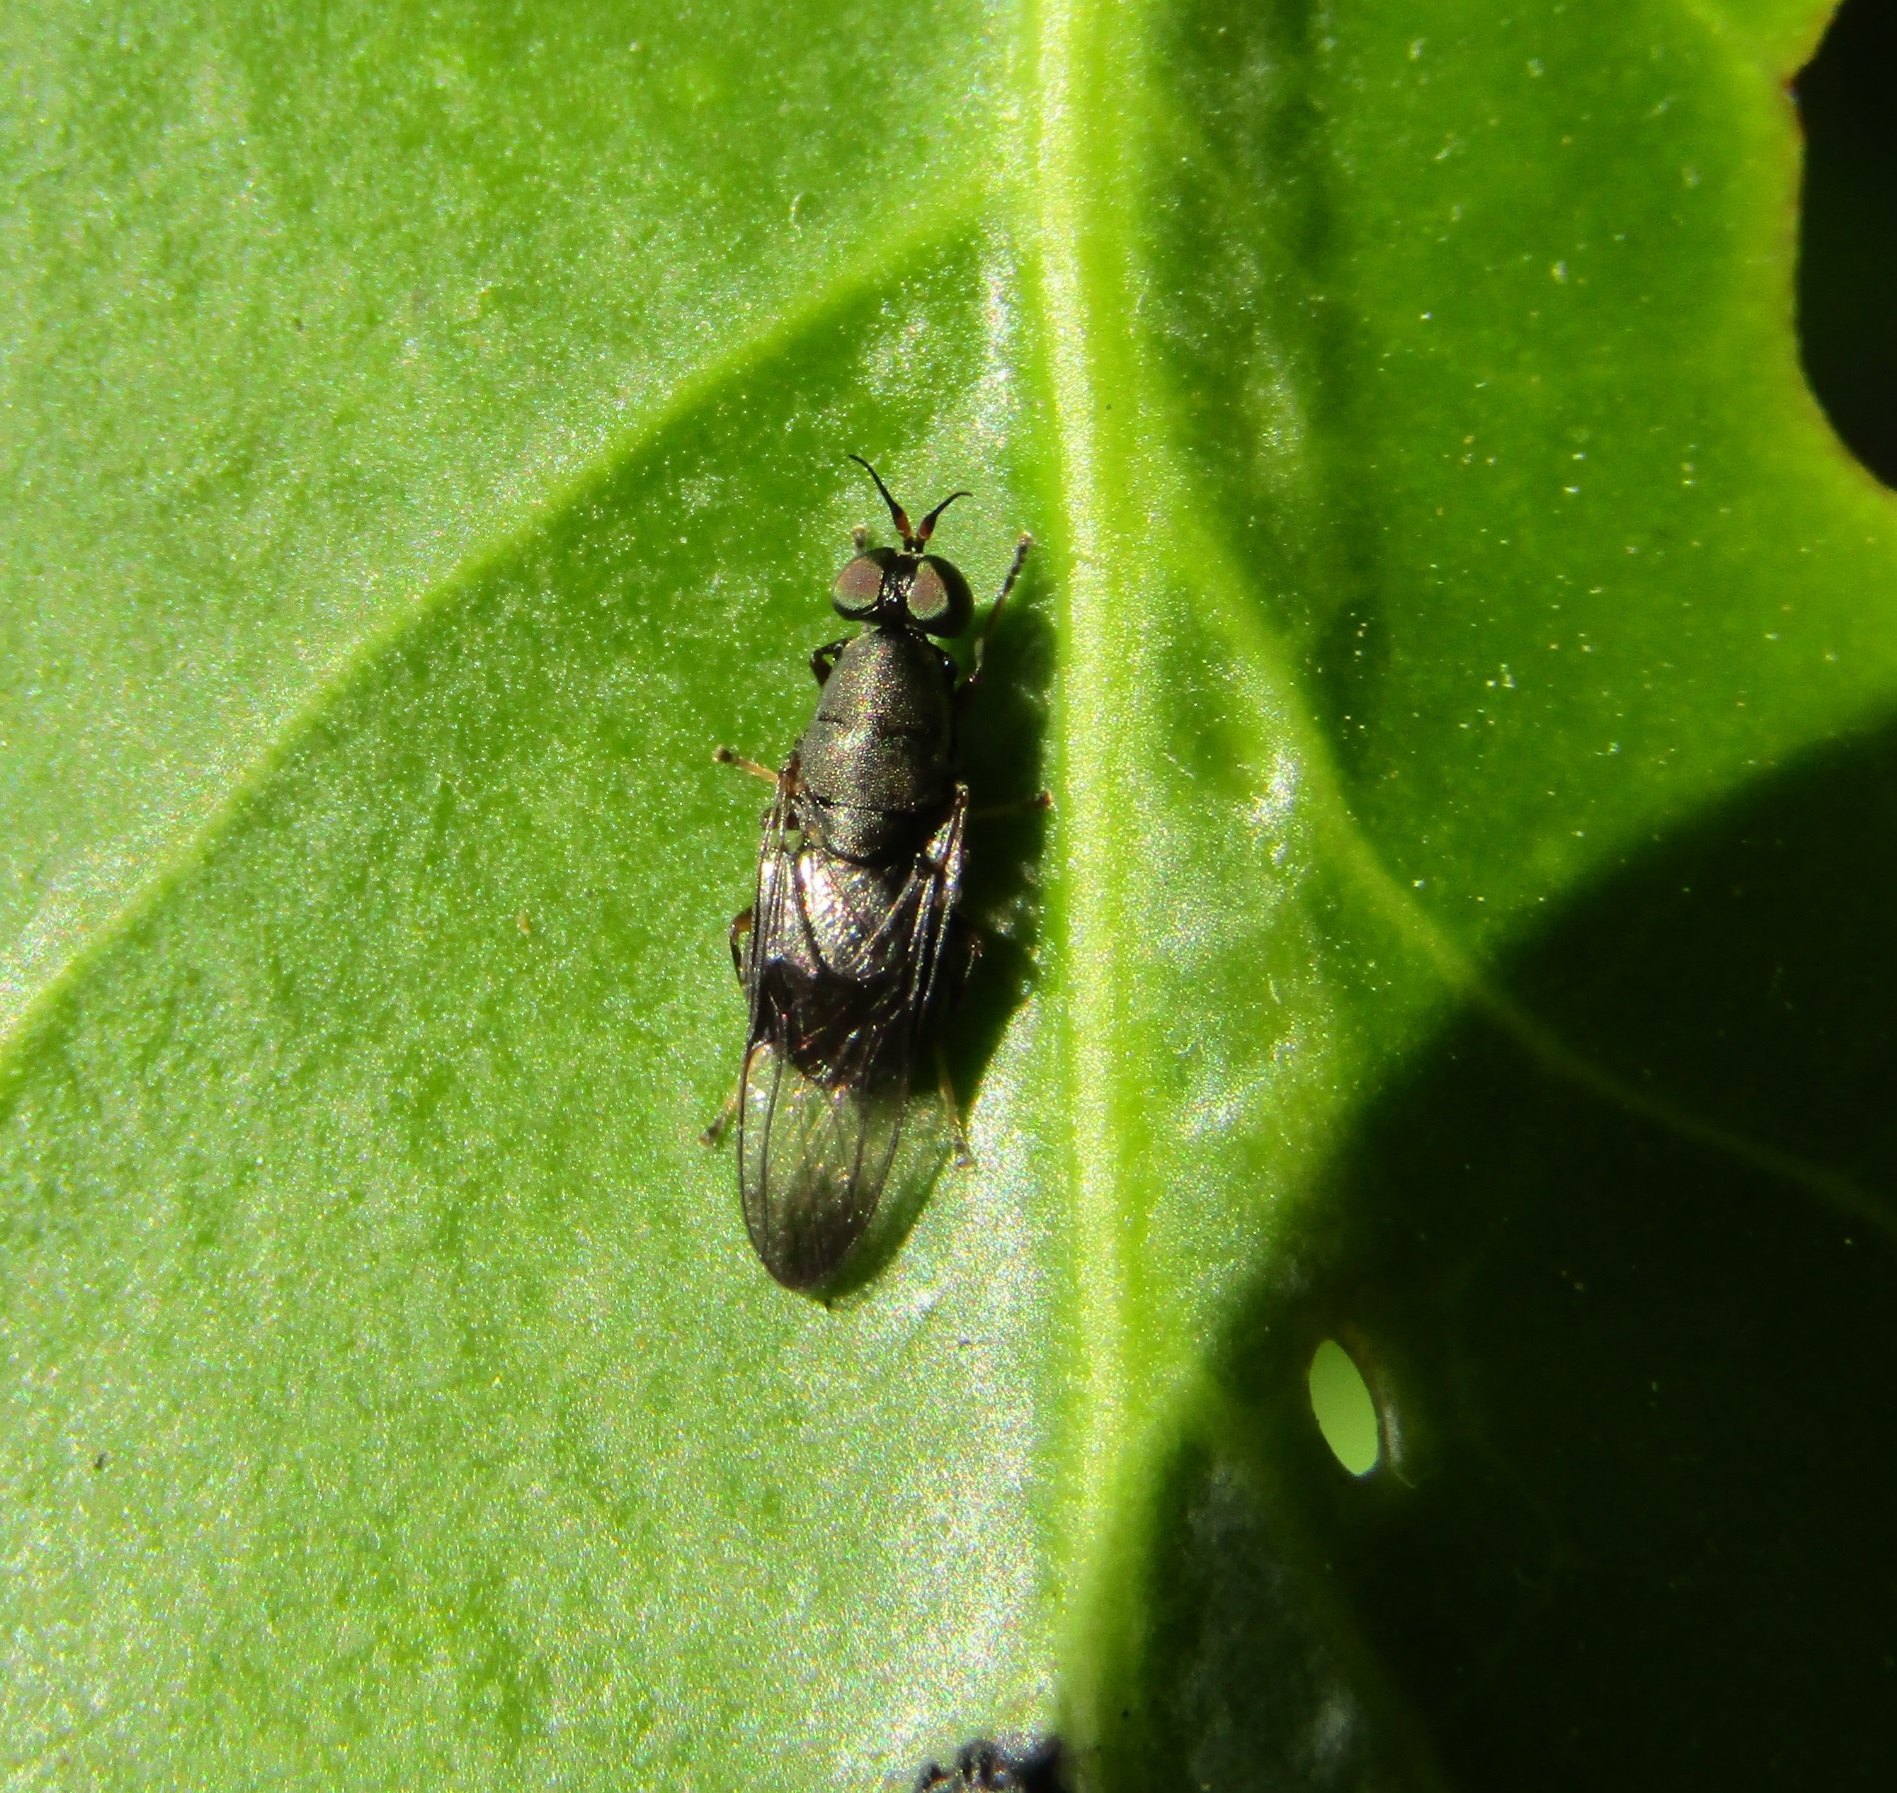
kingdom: Animalia
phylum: Arthropoda
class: Insecta
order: Diptera
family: Stratiomyidae
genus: Dysbiota
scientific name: Dysbiota peregrina
